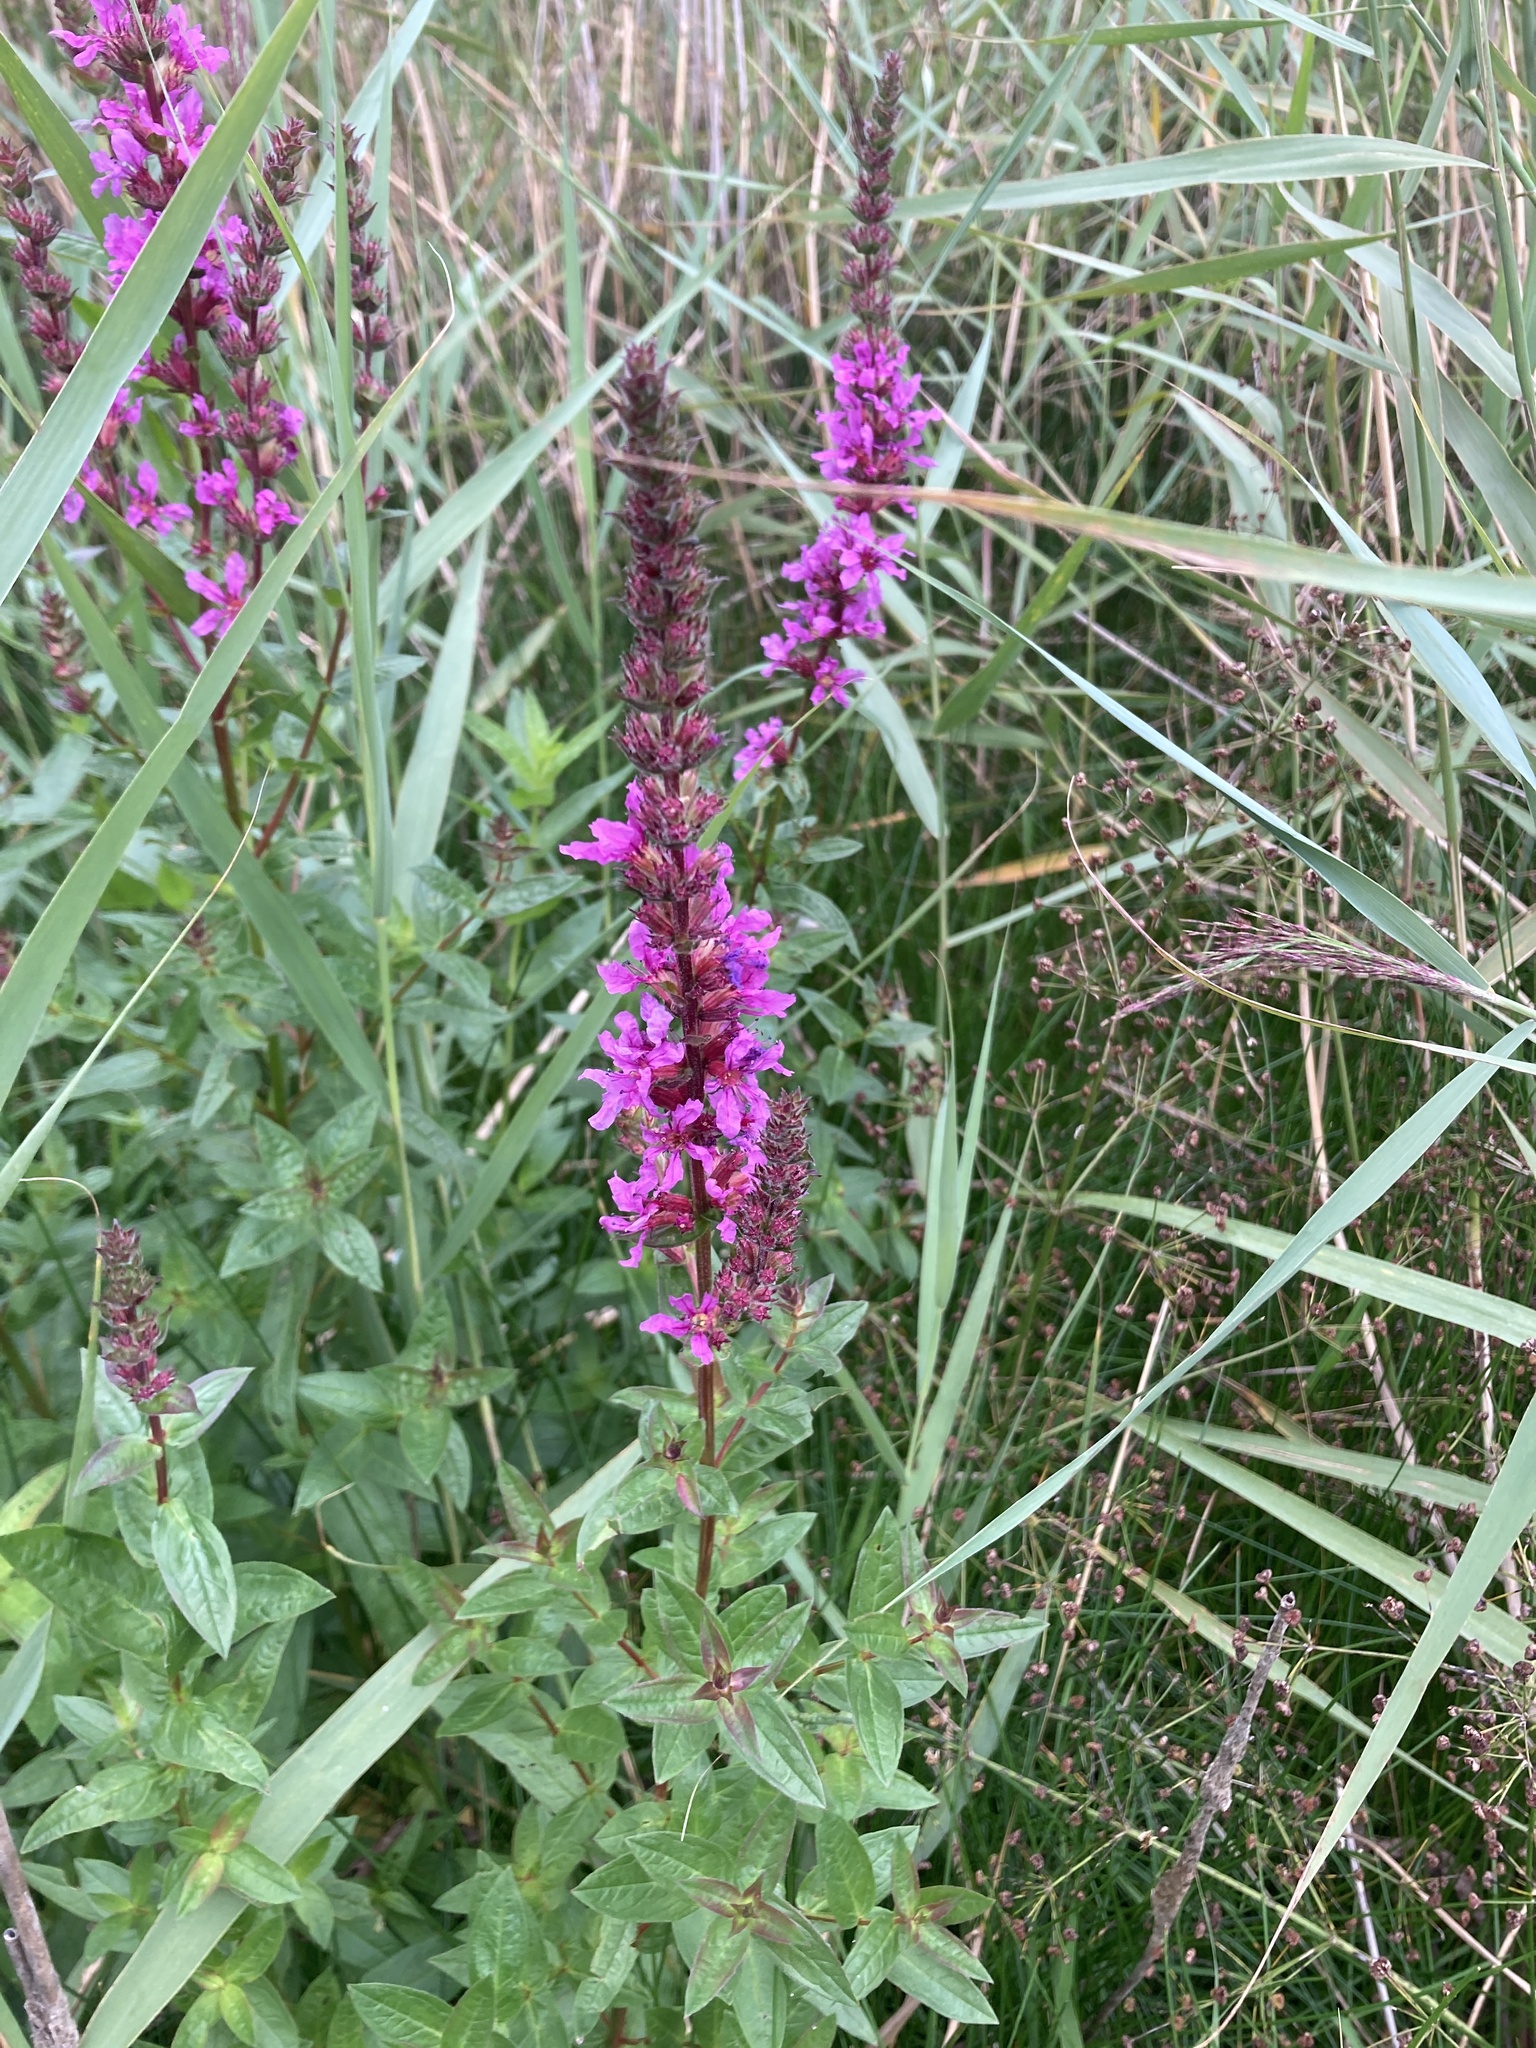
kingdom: Plantae
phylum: Tracheophyta
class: Magnoliopsida
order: Myrtales
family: Lythraceae
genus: Lythrum
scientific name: Lythrum salicaria
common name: Purple loosestrife
